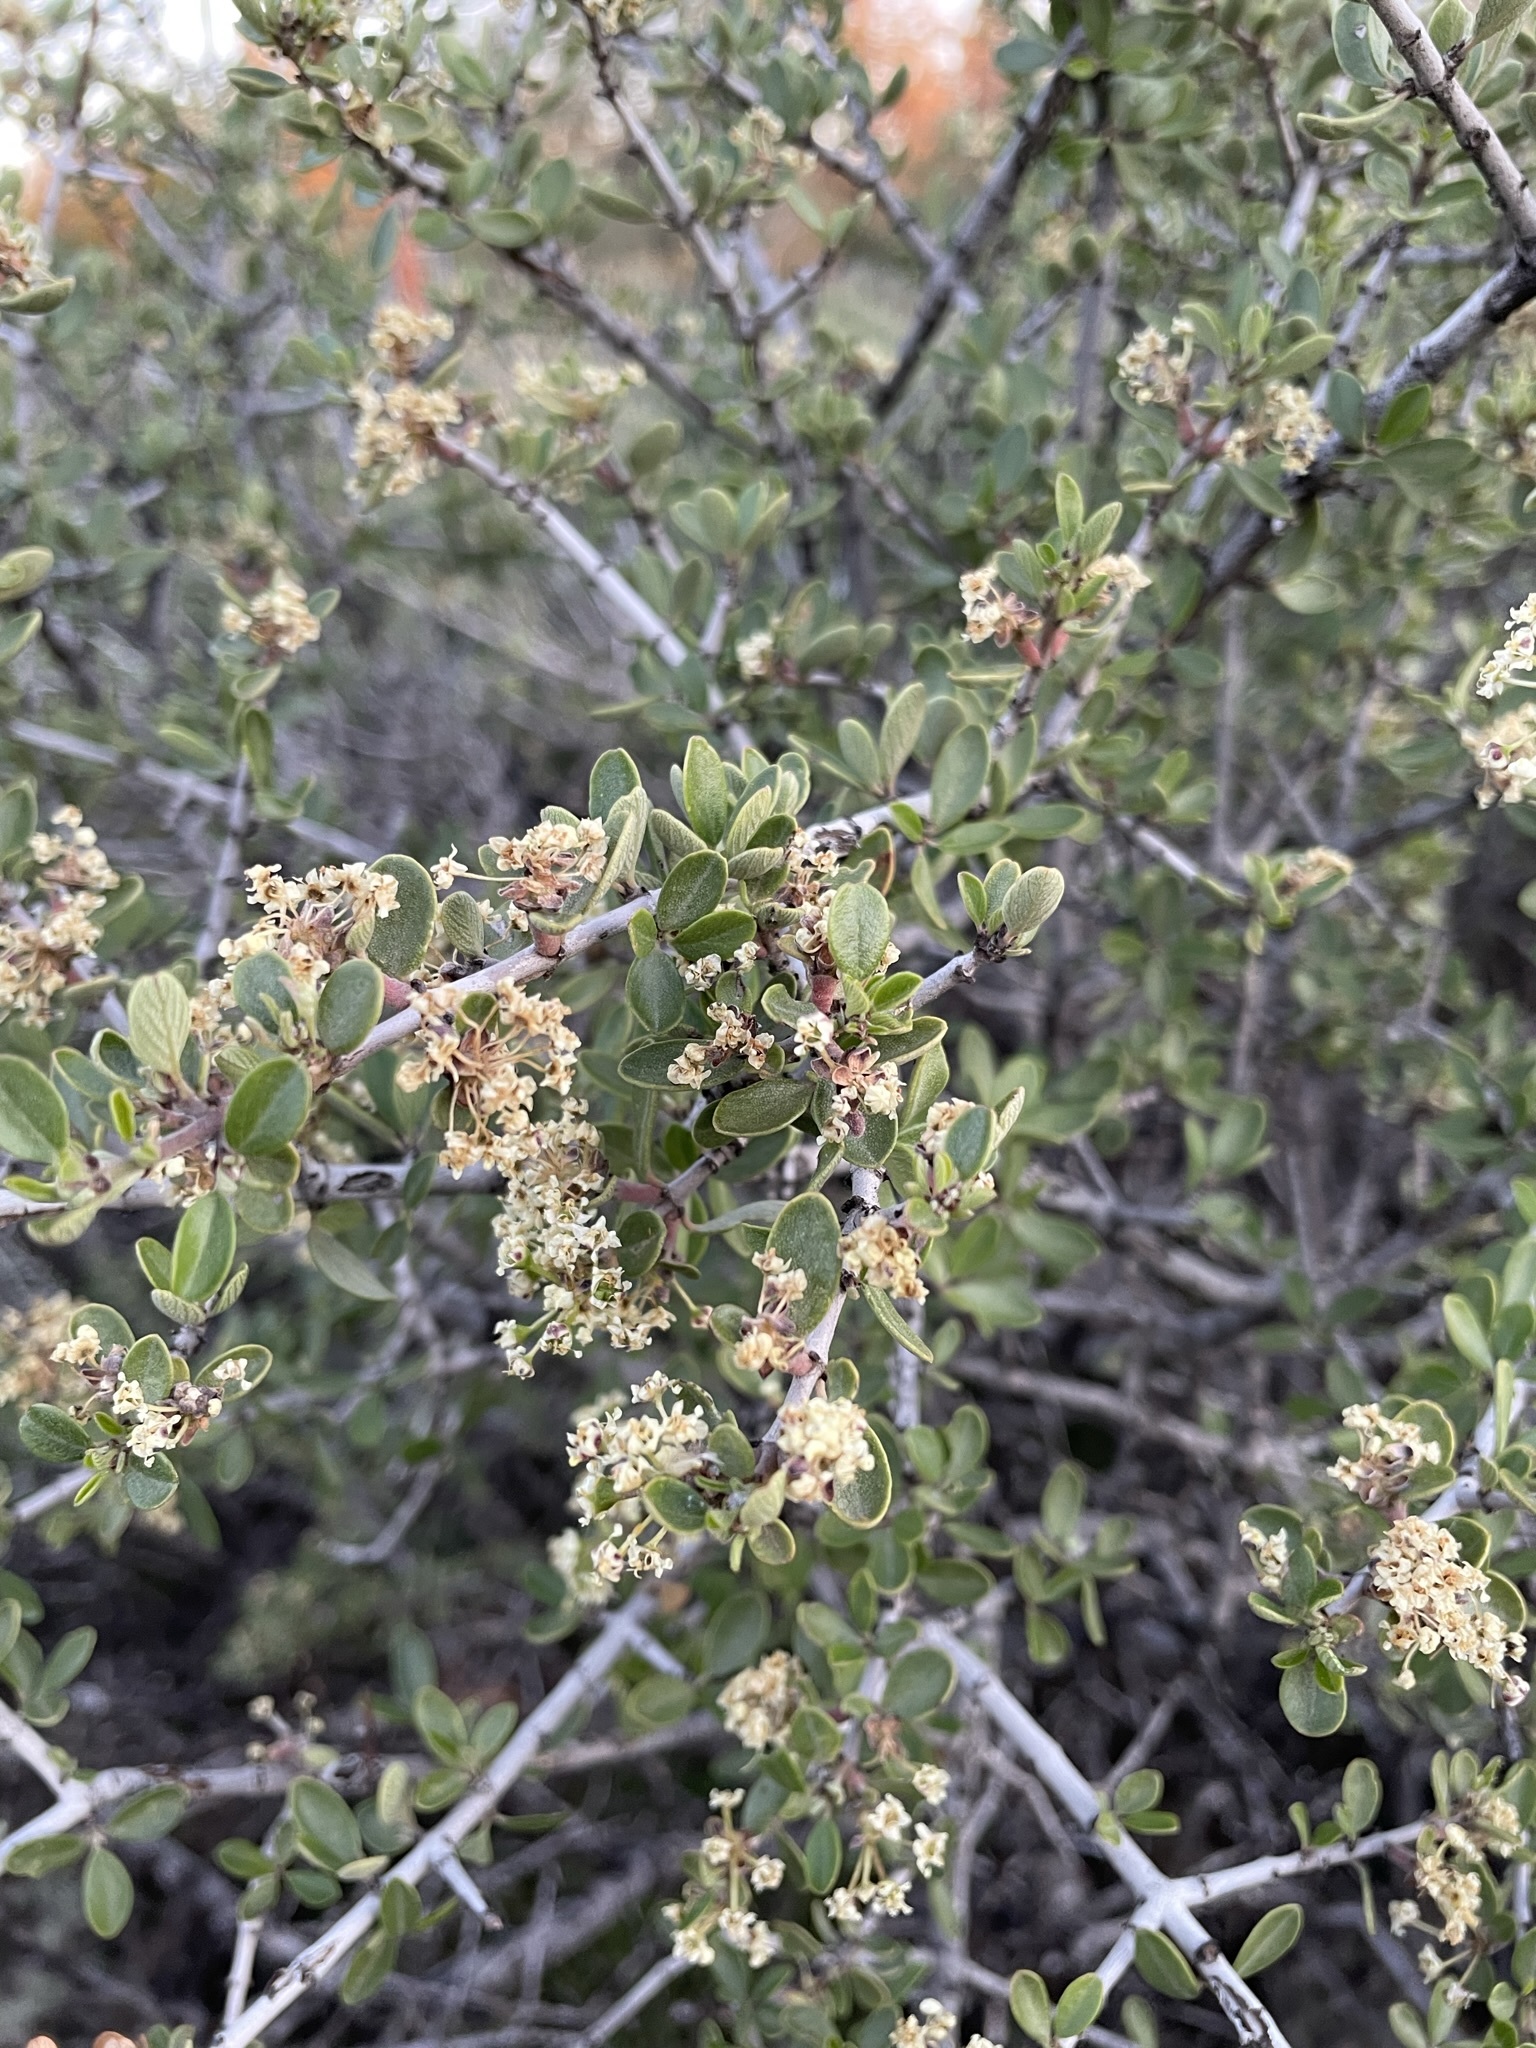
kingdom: Plantae
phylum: Tracheophyta
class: Magnoliopsida
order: Rosales
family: Rhamnaceae
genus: Ceanothus
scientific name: Ceanothus cuneatus
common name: Cuneate ceanothus
